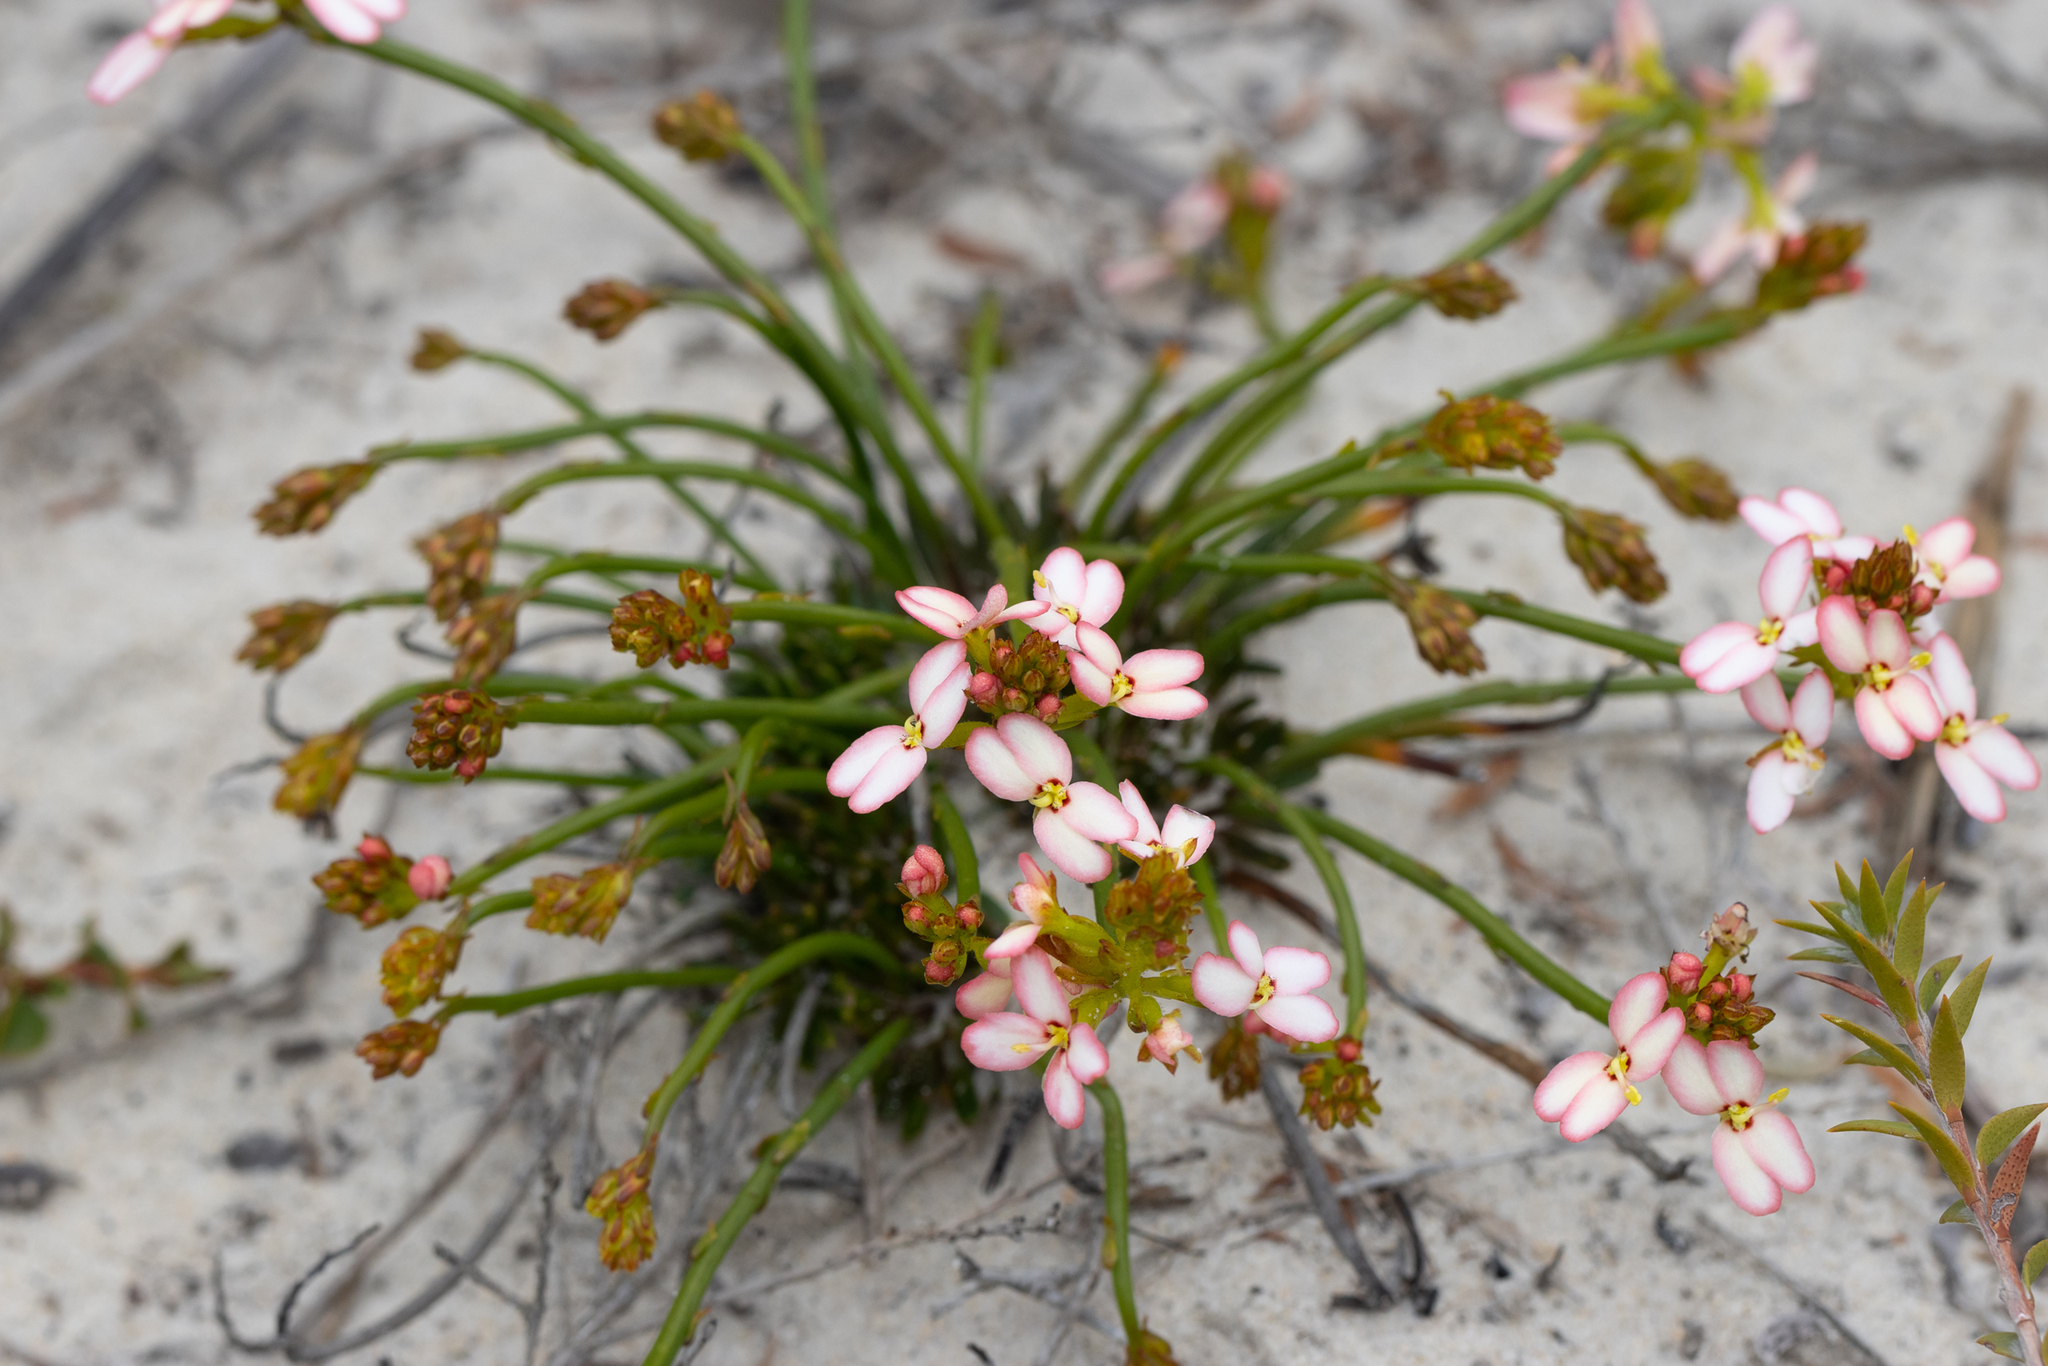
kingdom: Plantae
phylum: Tracheophyta
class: Magnoliopsida
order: Asterales
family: Stylidiaceae
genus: Stylidium
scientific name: Stylidium junceum
